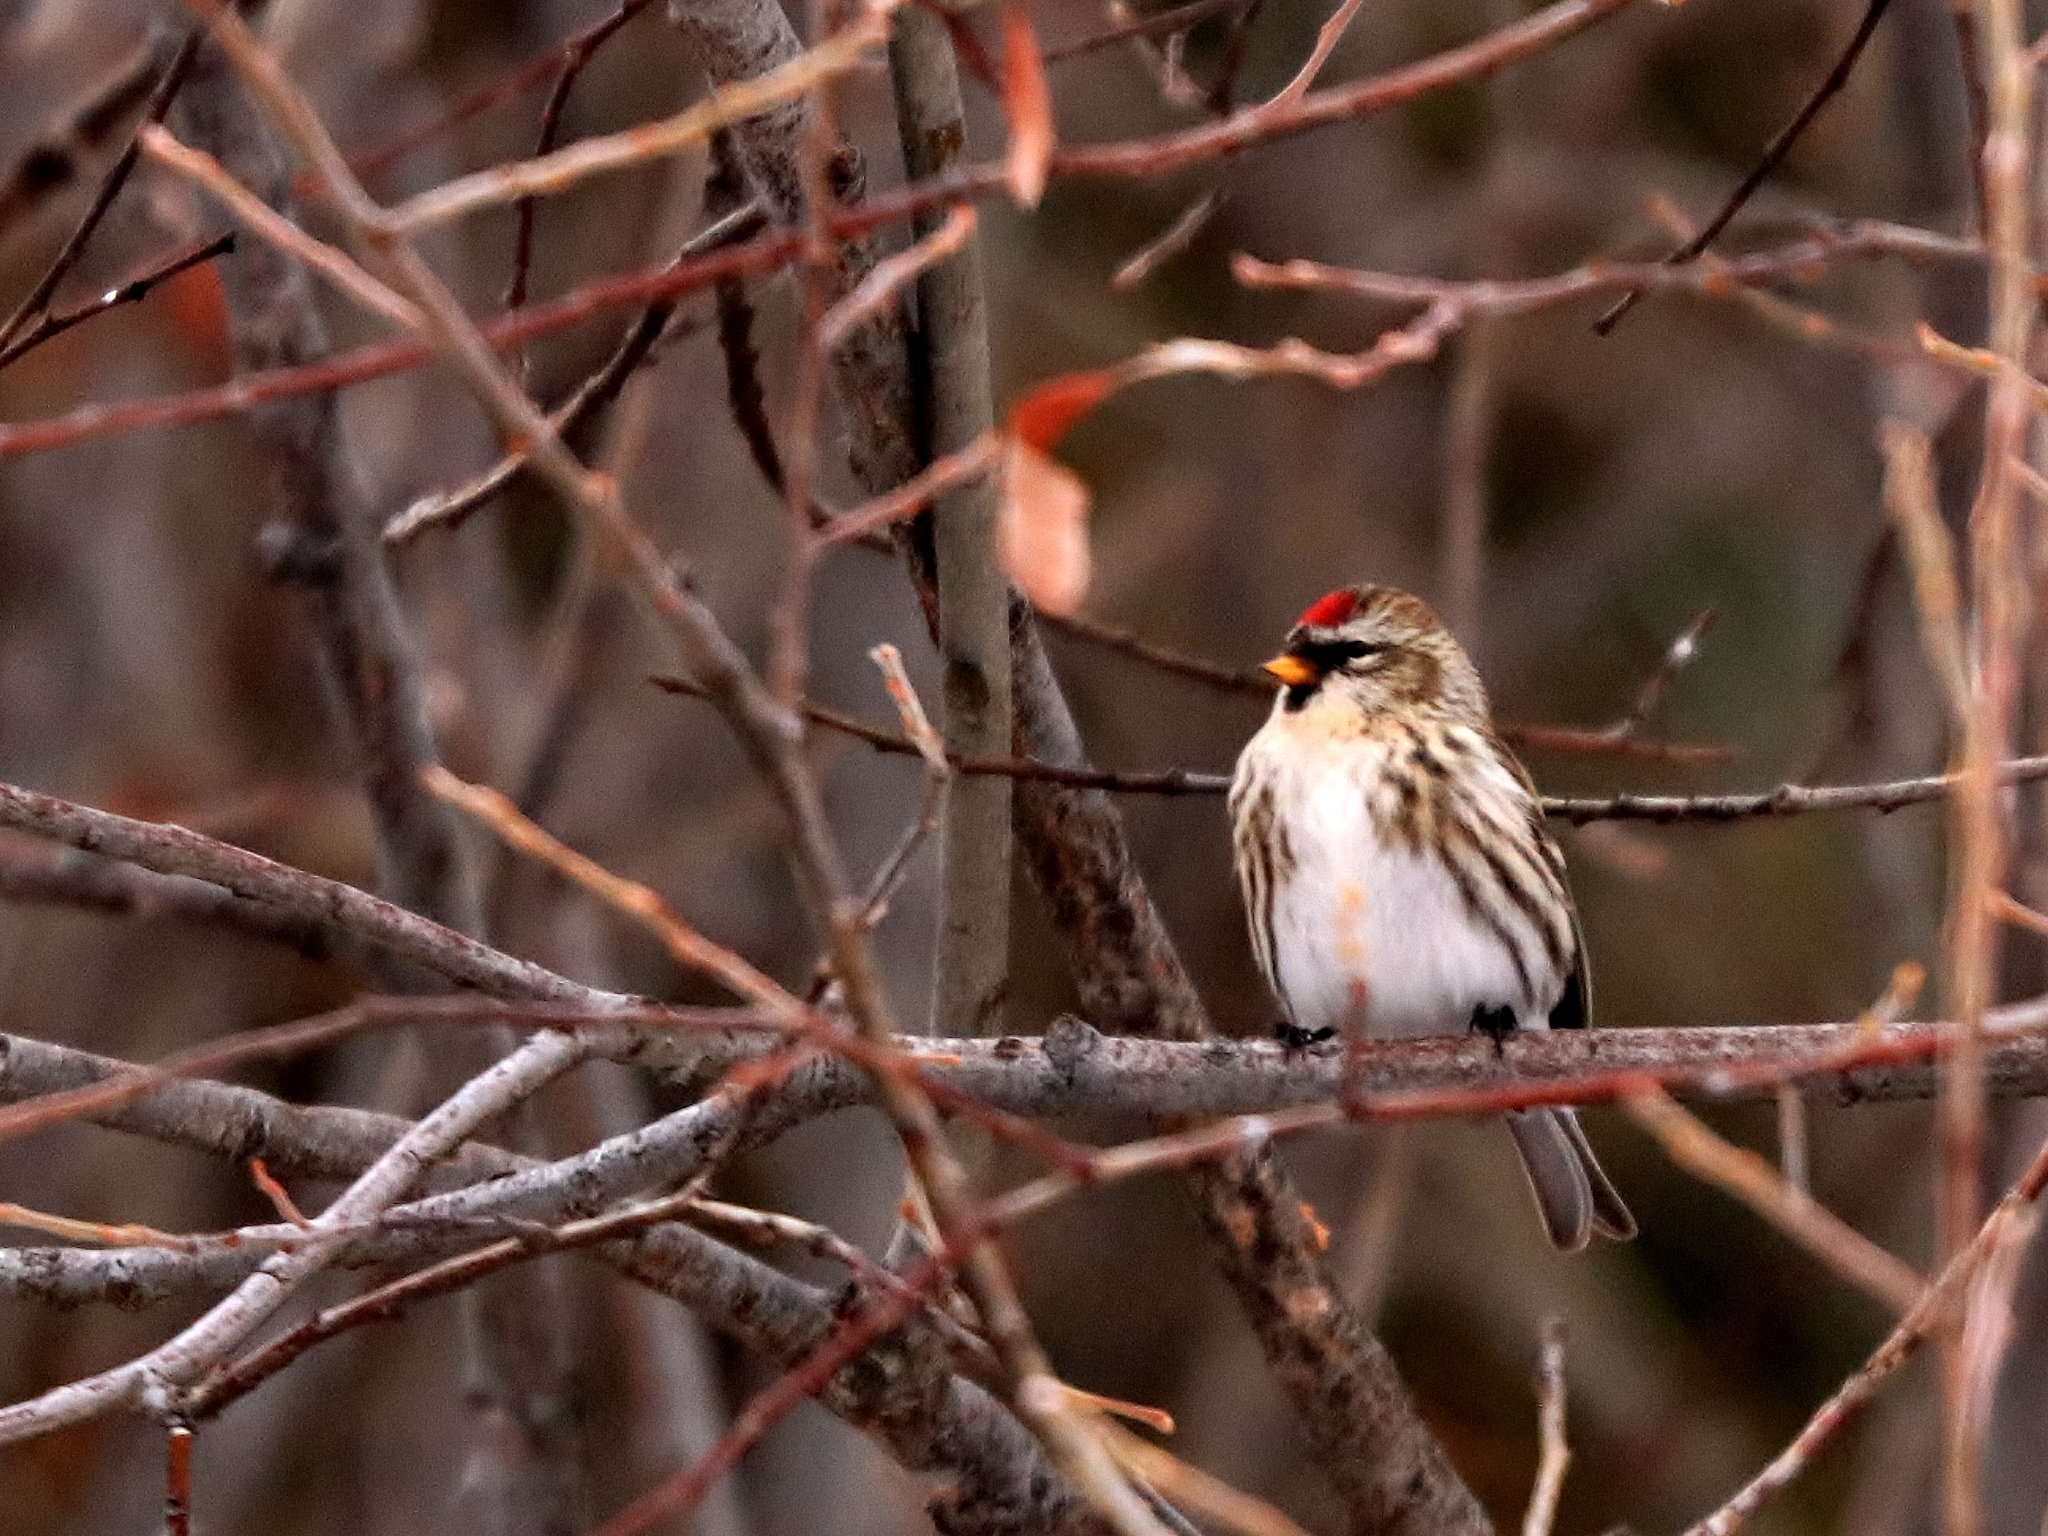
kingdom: Animalia
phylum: Chordata
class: Aves
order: Passeriformes
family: Fringillidae
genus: Acanthis
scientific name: Acanthis flammea
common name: Common redpoll
